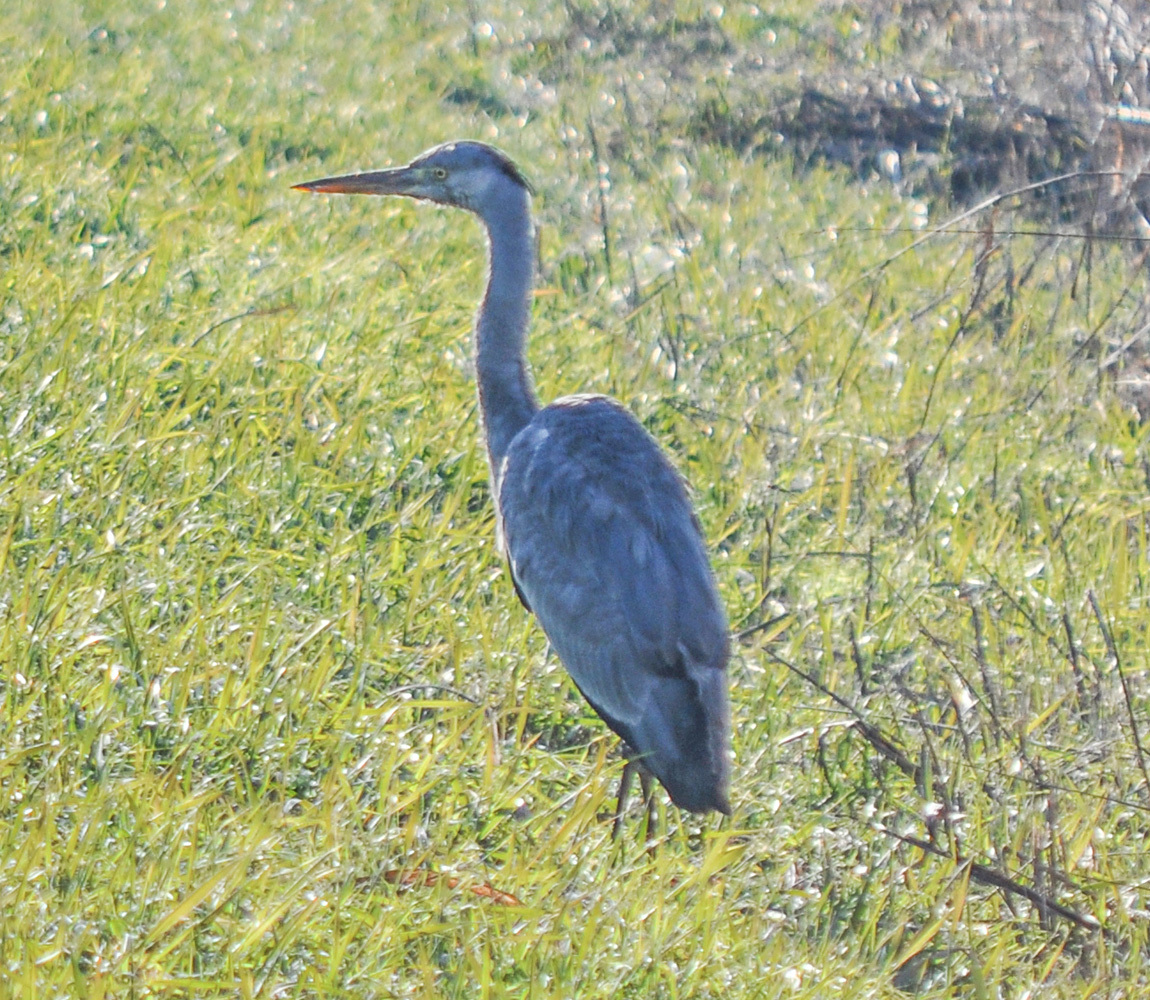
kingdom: Animalia
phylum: Chordata
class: Aves
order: Pelecaniformes
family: Ardeidae
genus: Ardea
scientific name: Ardea cinerea
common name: Grey heron
